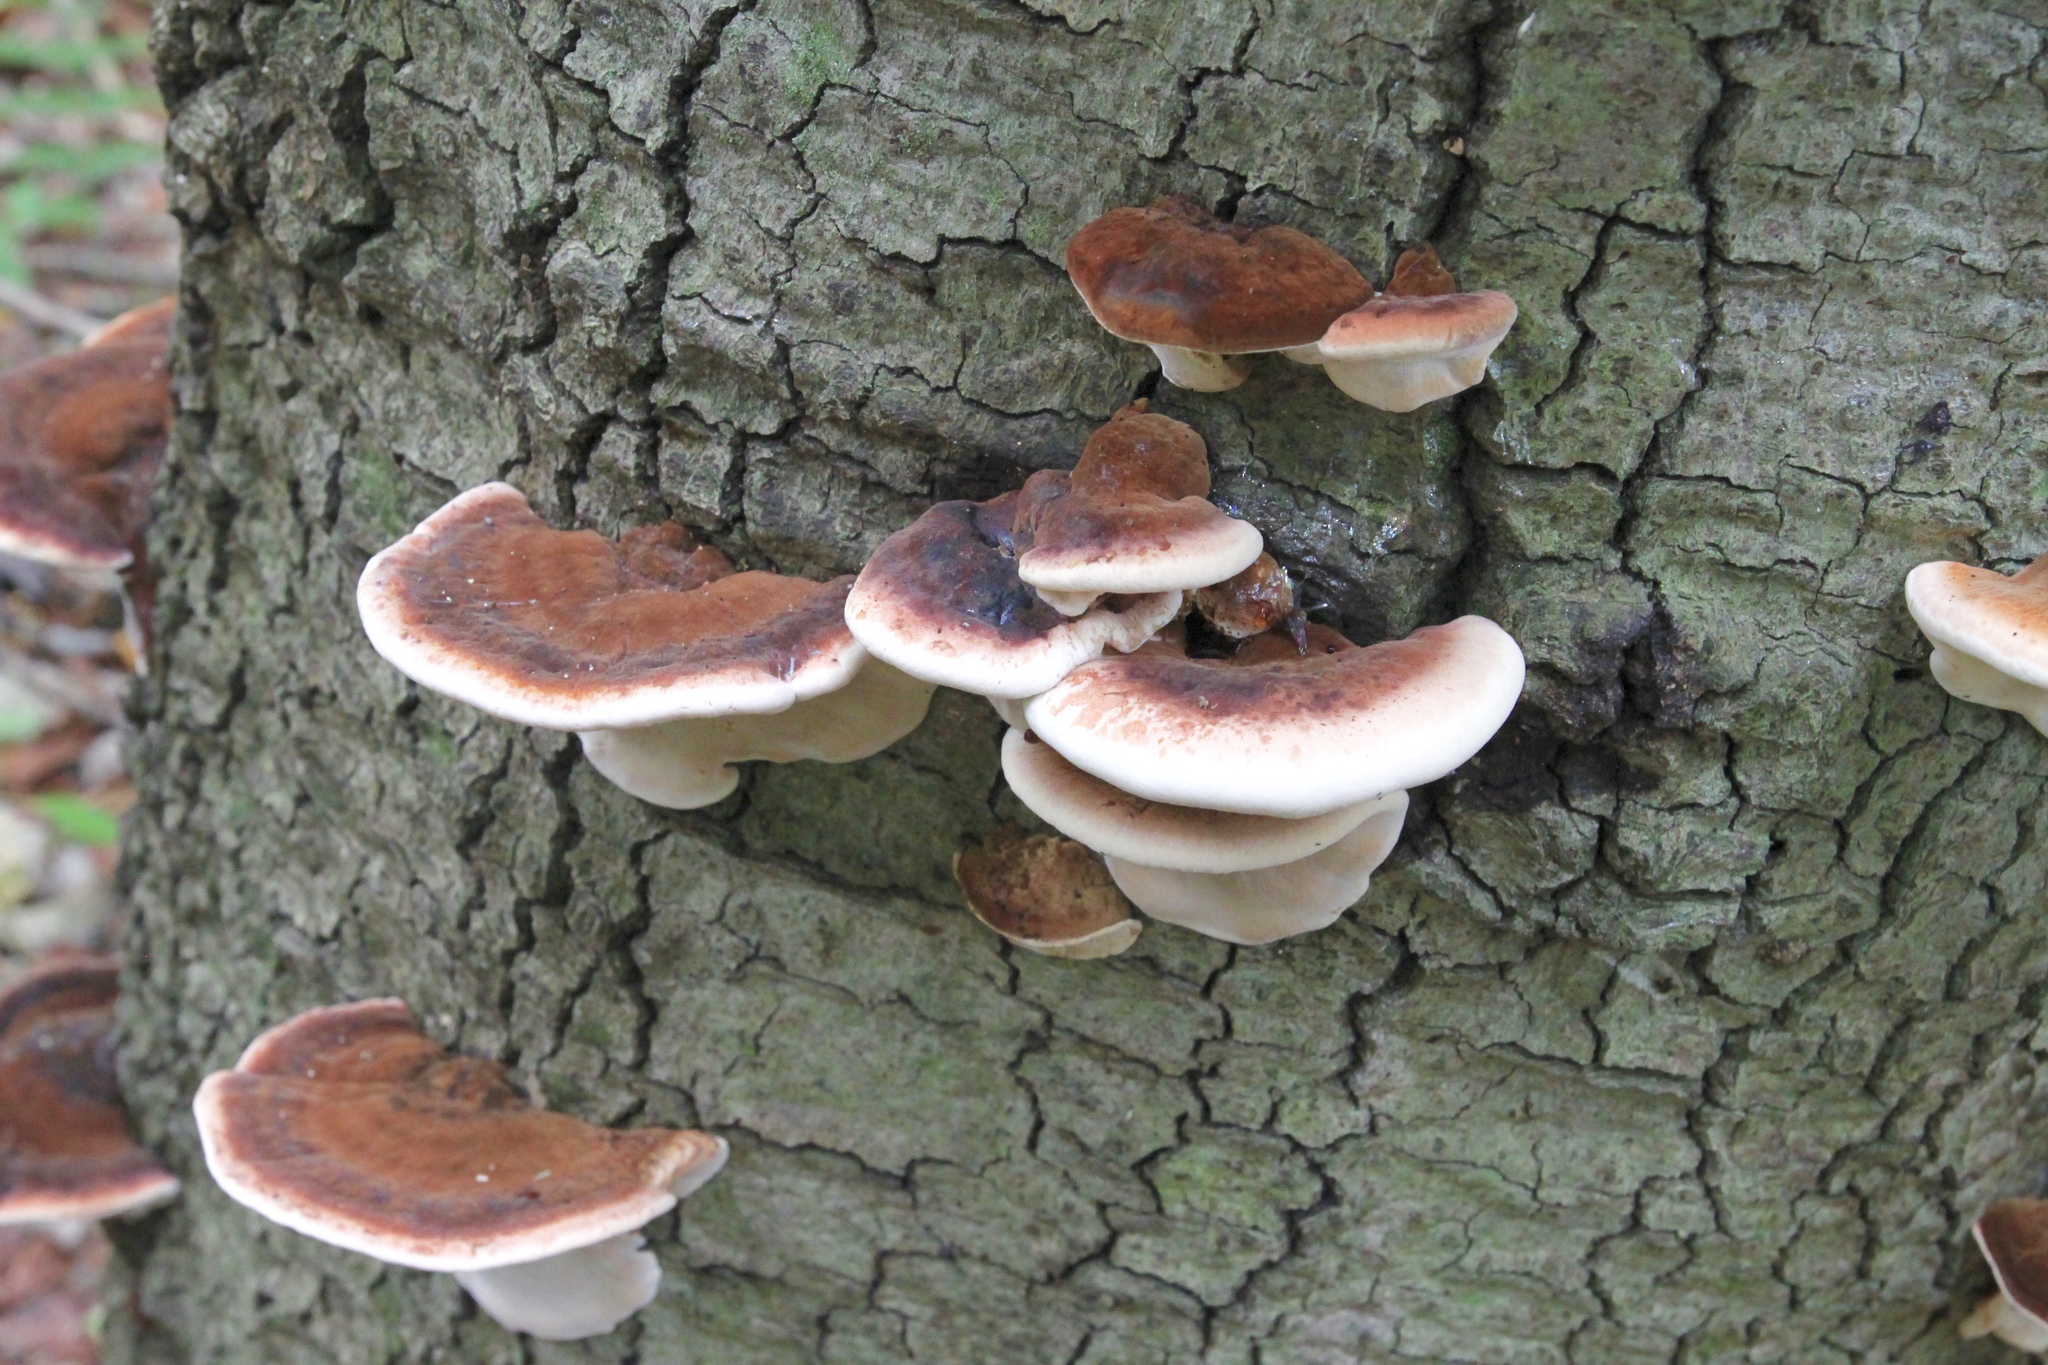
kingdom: Fungi
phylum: Basidiomycota
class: Agaricomycetes
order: Polyporales
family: Ischnodermataceae
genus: Ischnoderma
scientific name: Ischnoderma resinosum
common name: Resinous polypore
